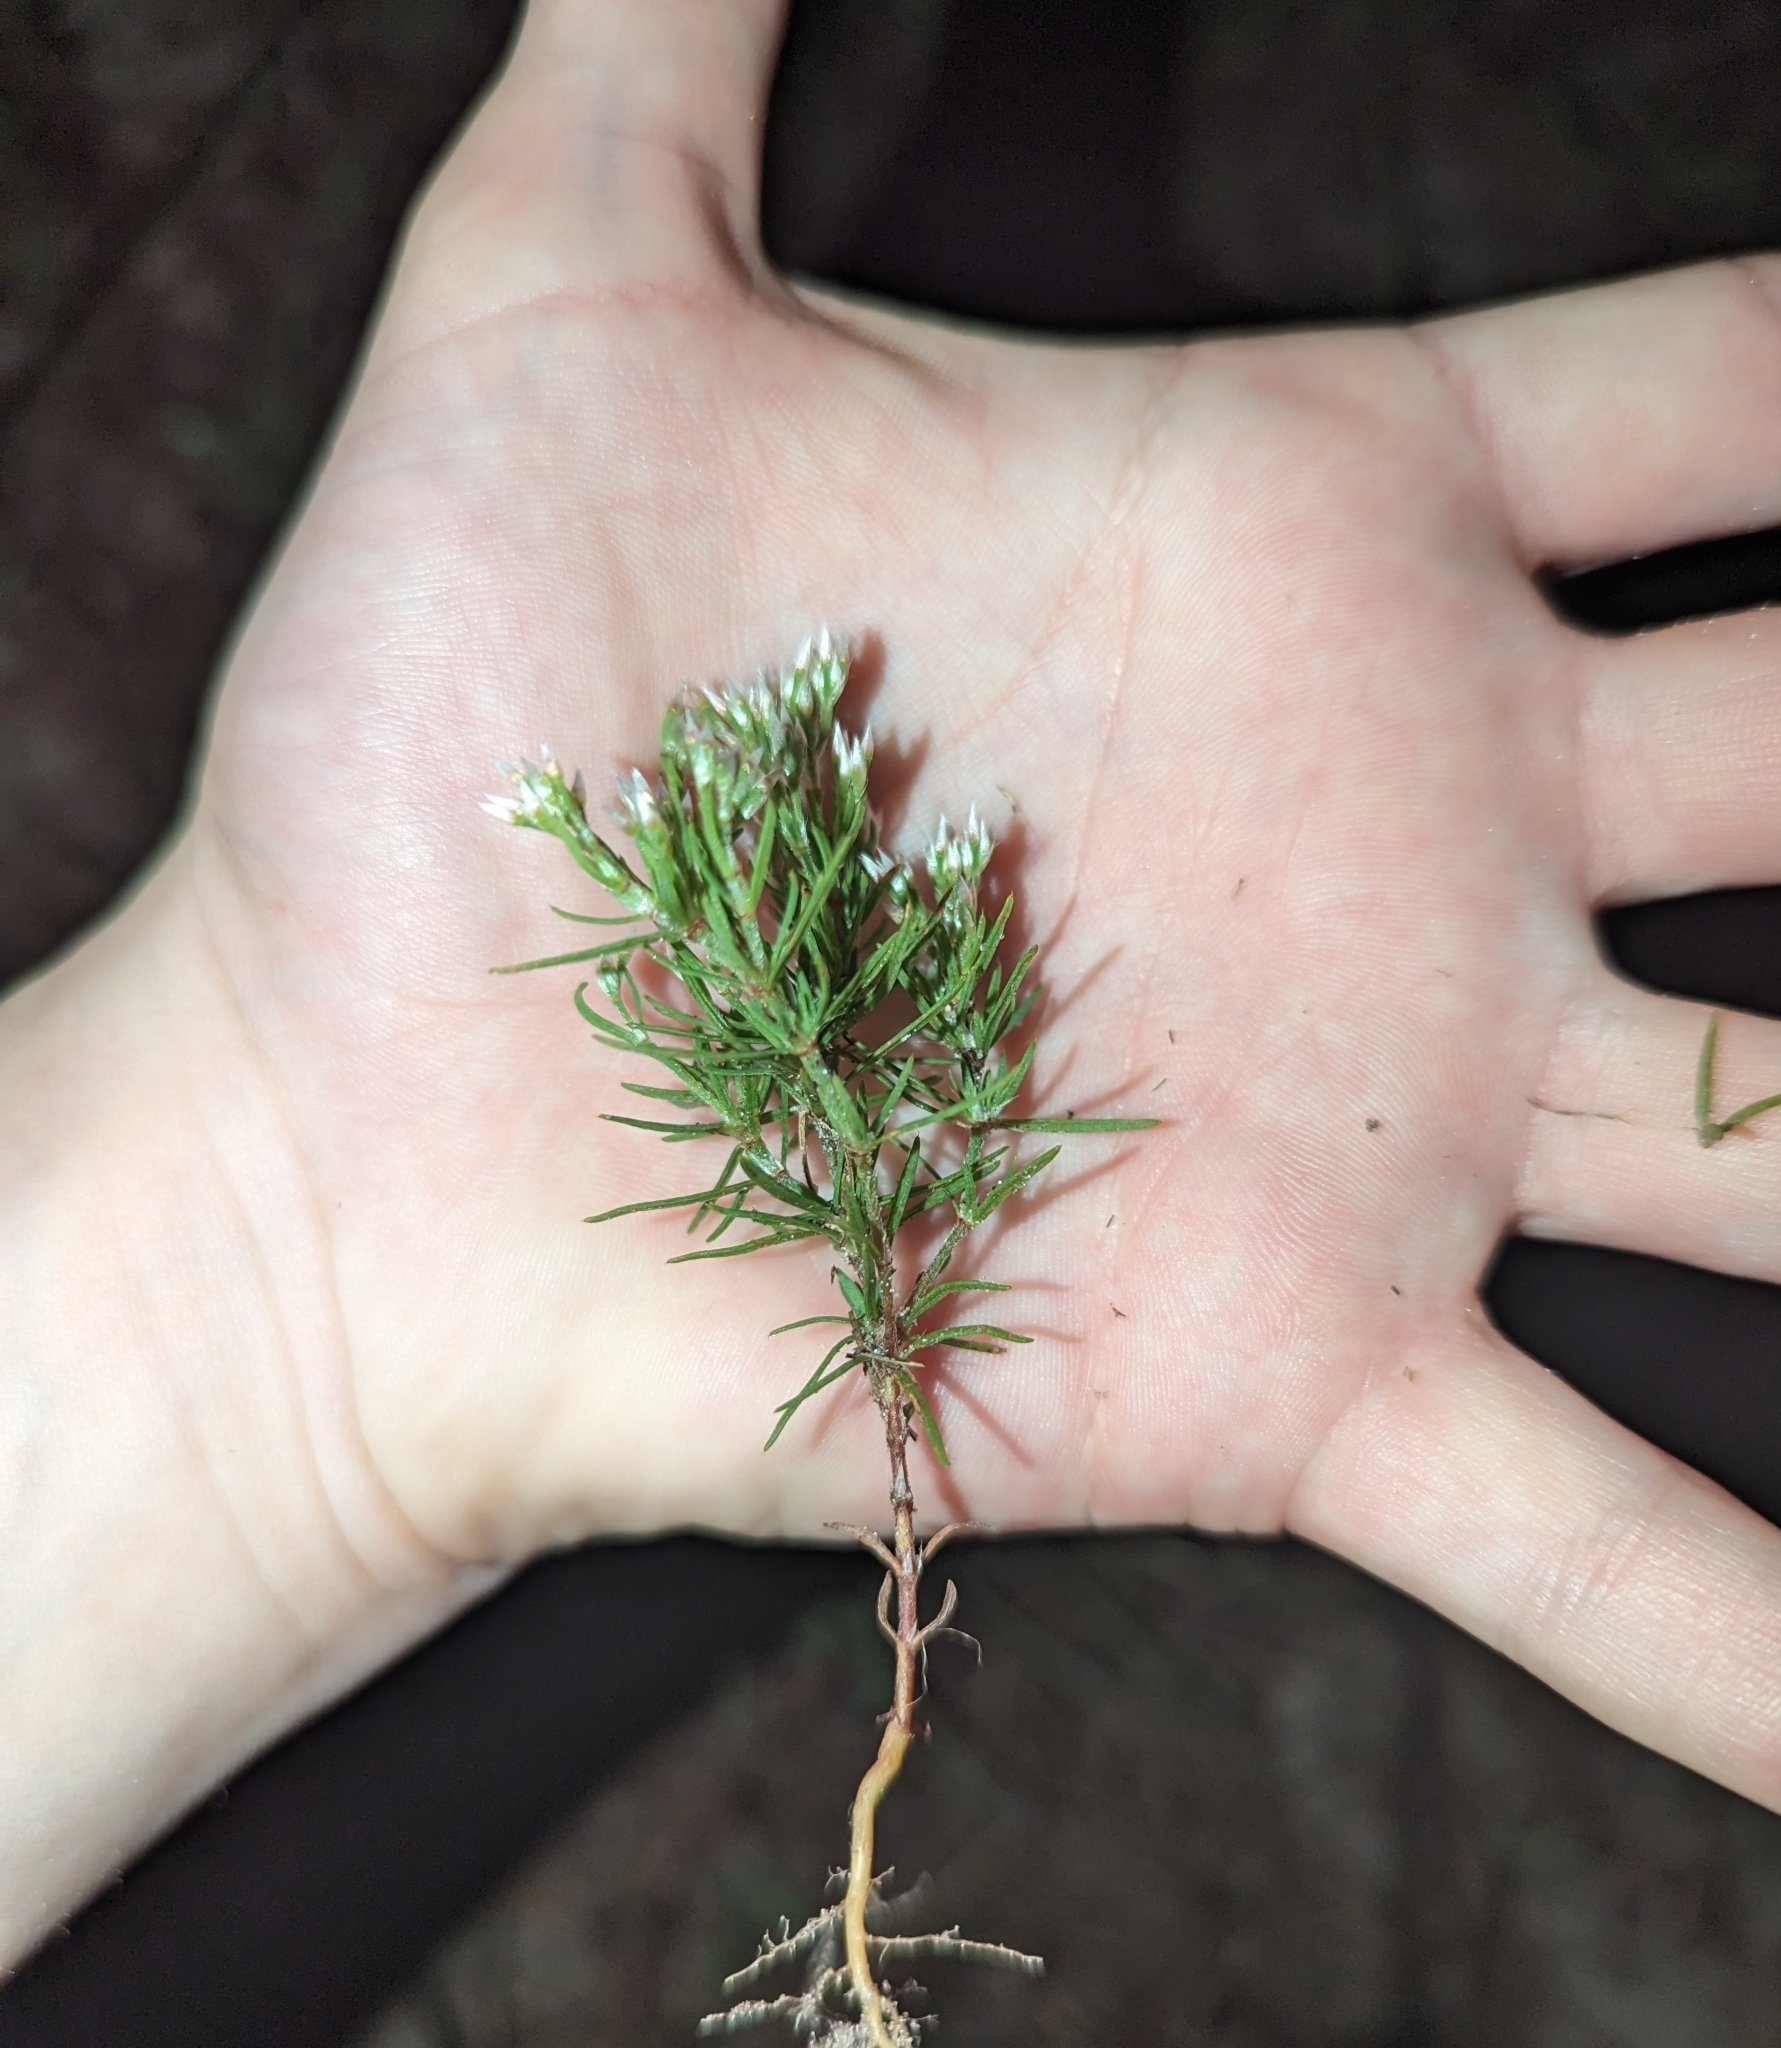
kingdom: Plantae
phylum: Tracheophyta
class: Magnoliopsida
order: Caryophyllales
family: Caryophyllaceae
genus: Polycarpaea
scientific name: Polycarpaea corymbosa
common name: Oldman's cap
